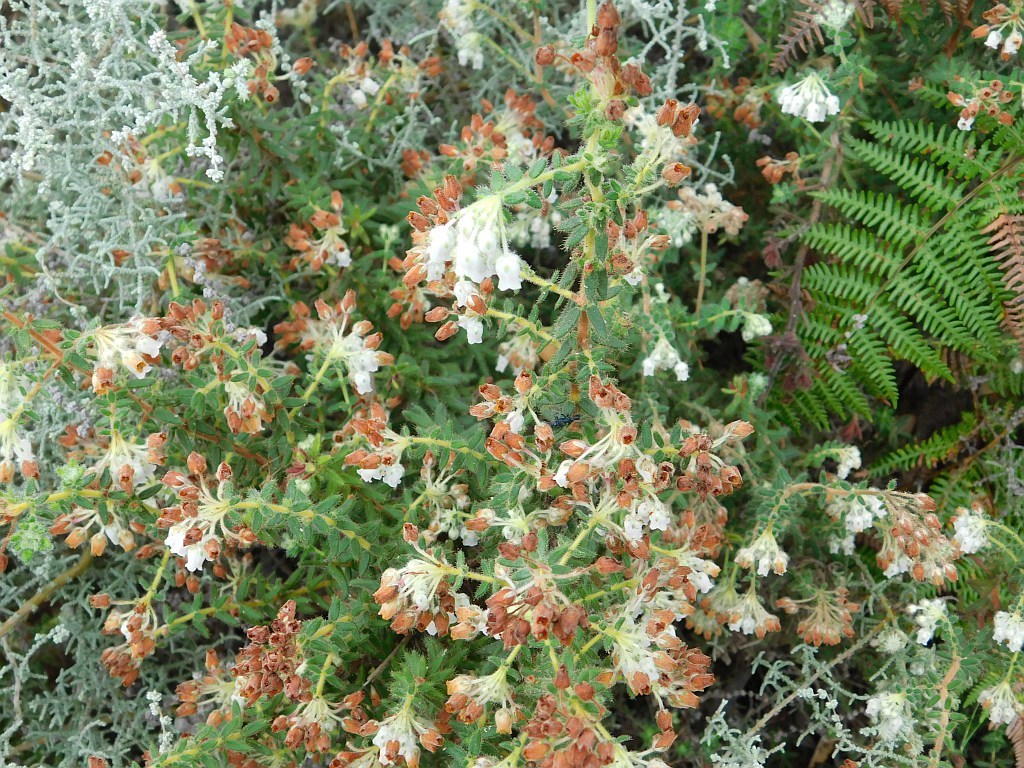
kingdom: Plantae
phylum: Tracheophyta
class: Magnoliopsida
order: Ericales
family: Ericaceae
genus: Erica
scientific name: Erica pannosa
